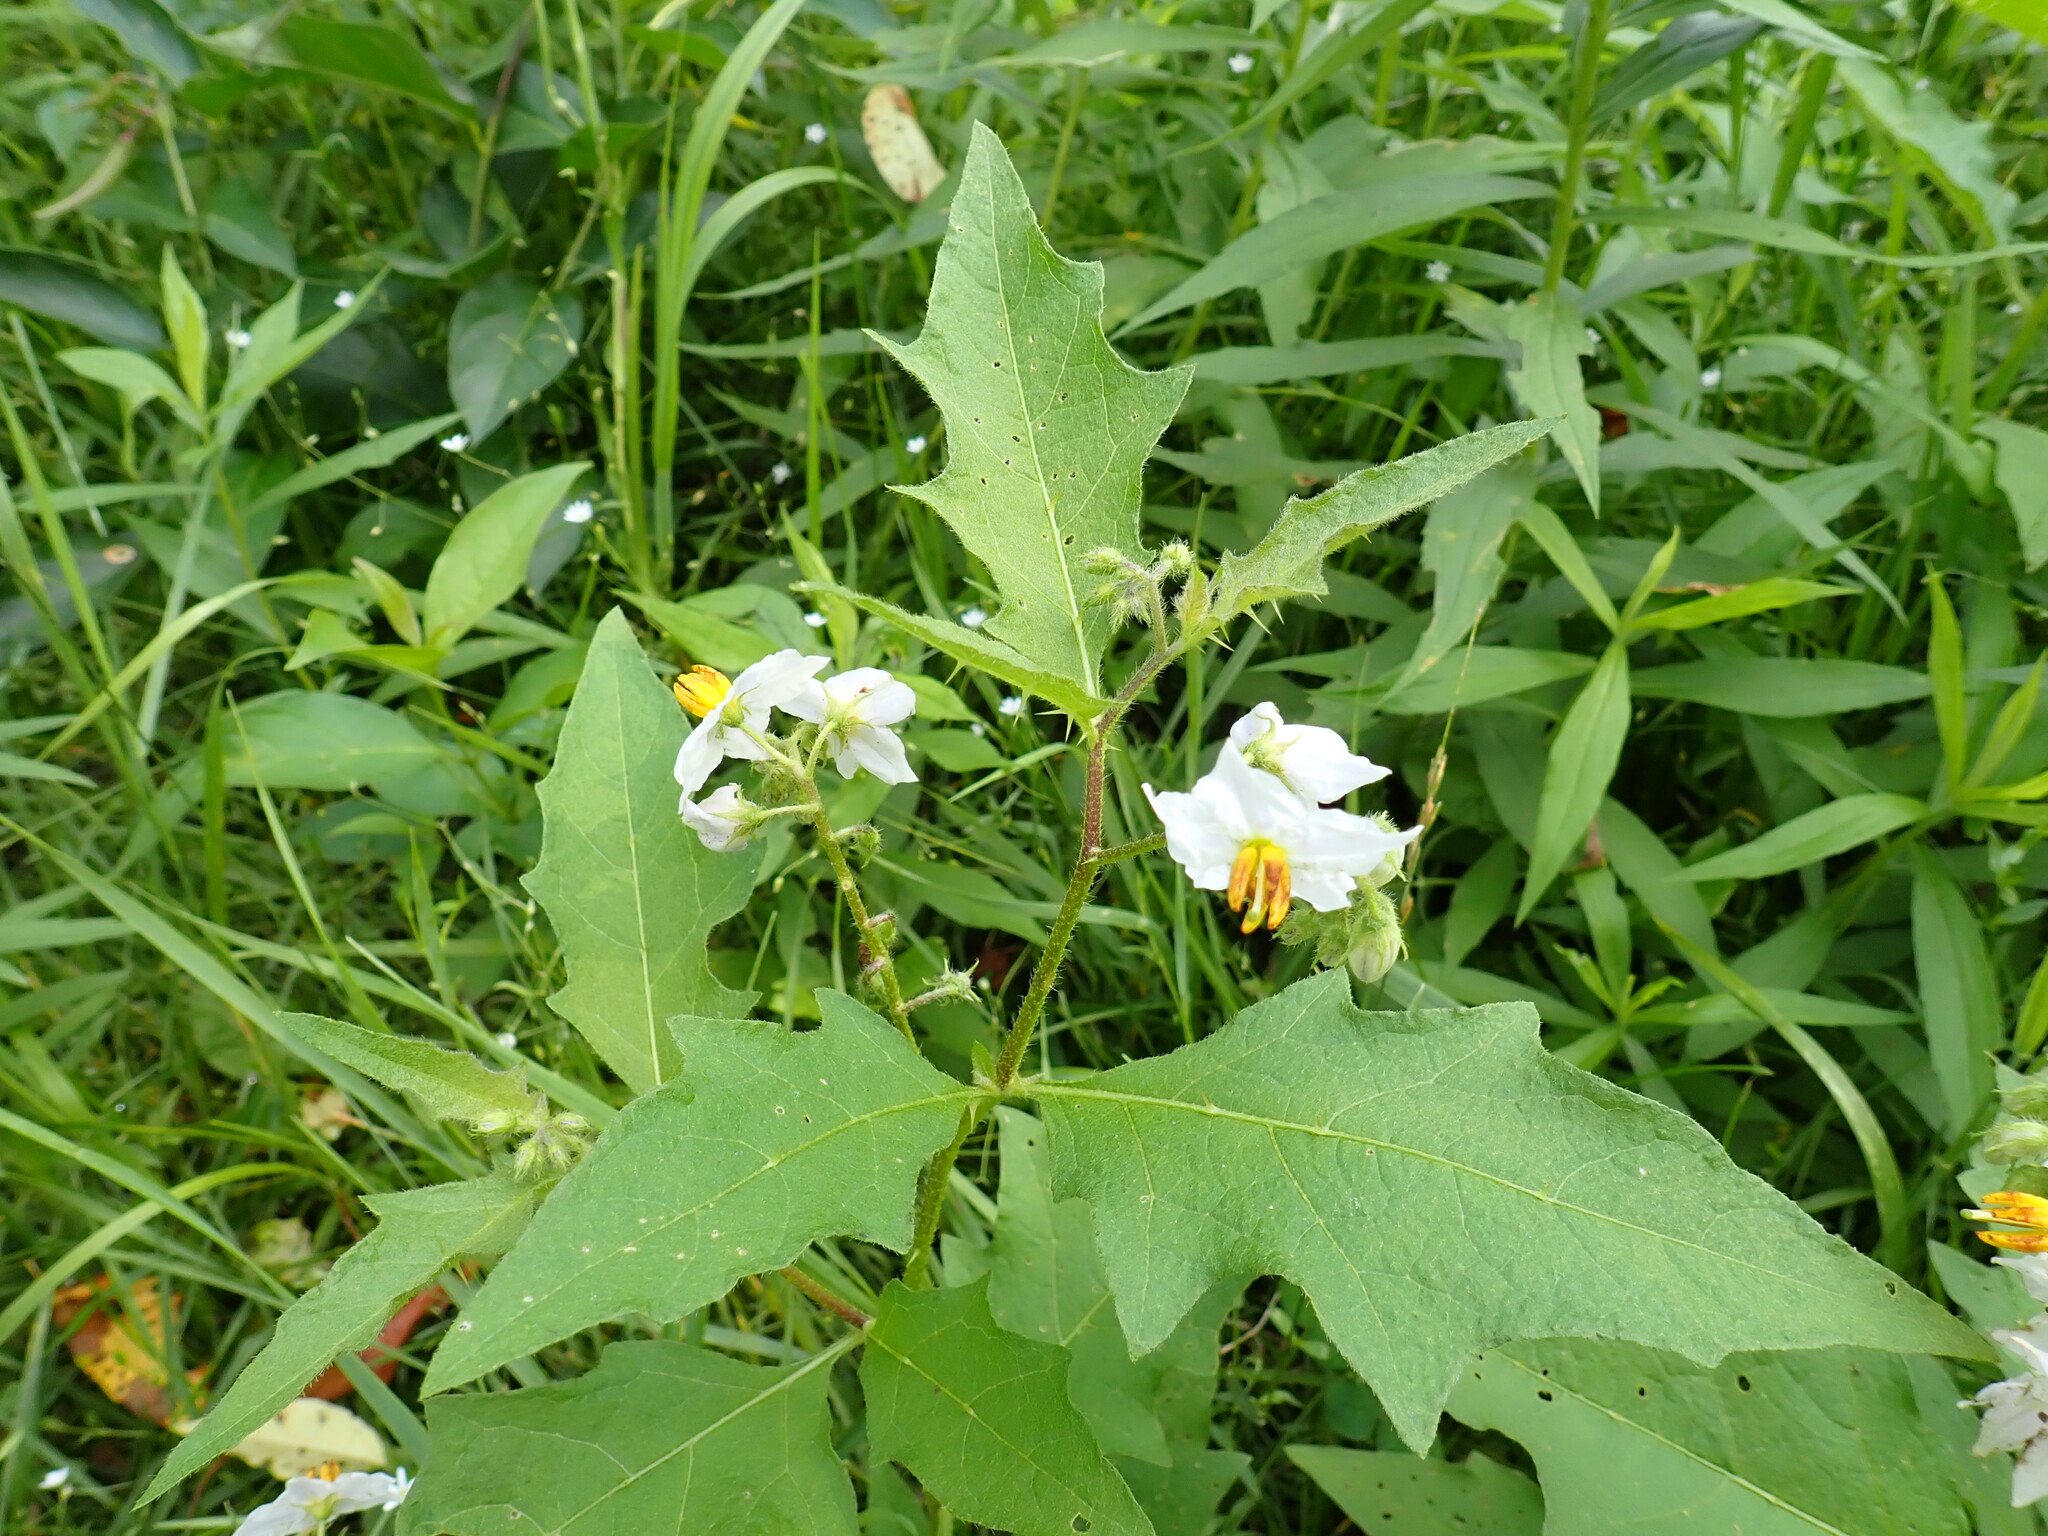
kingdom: Plantae
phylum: Tracheophyta
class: Magnoliopsida
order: Solanales
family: Solanaceae
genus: Solanum
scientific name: Solanum carolinense
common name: Horse-nettle
